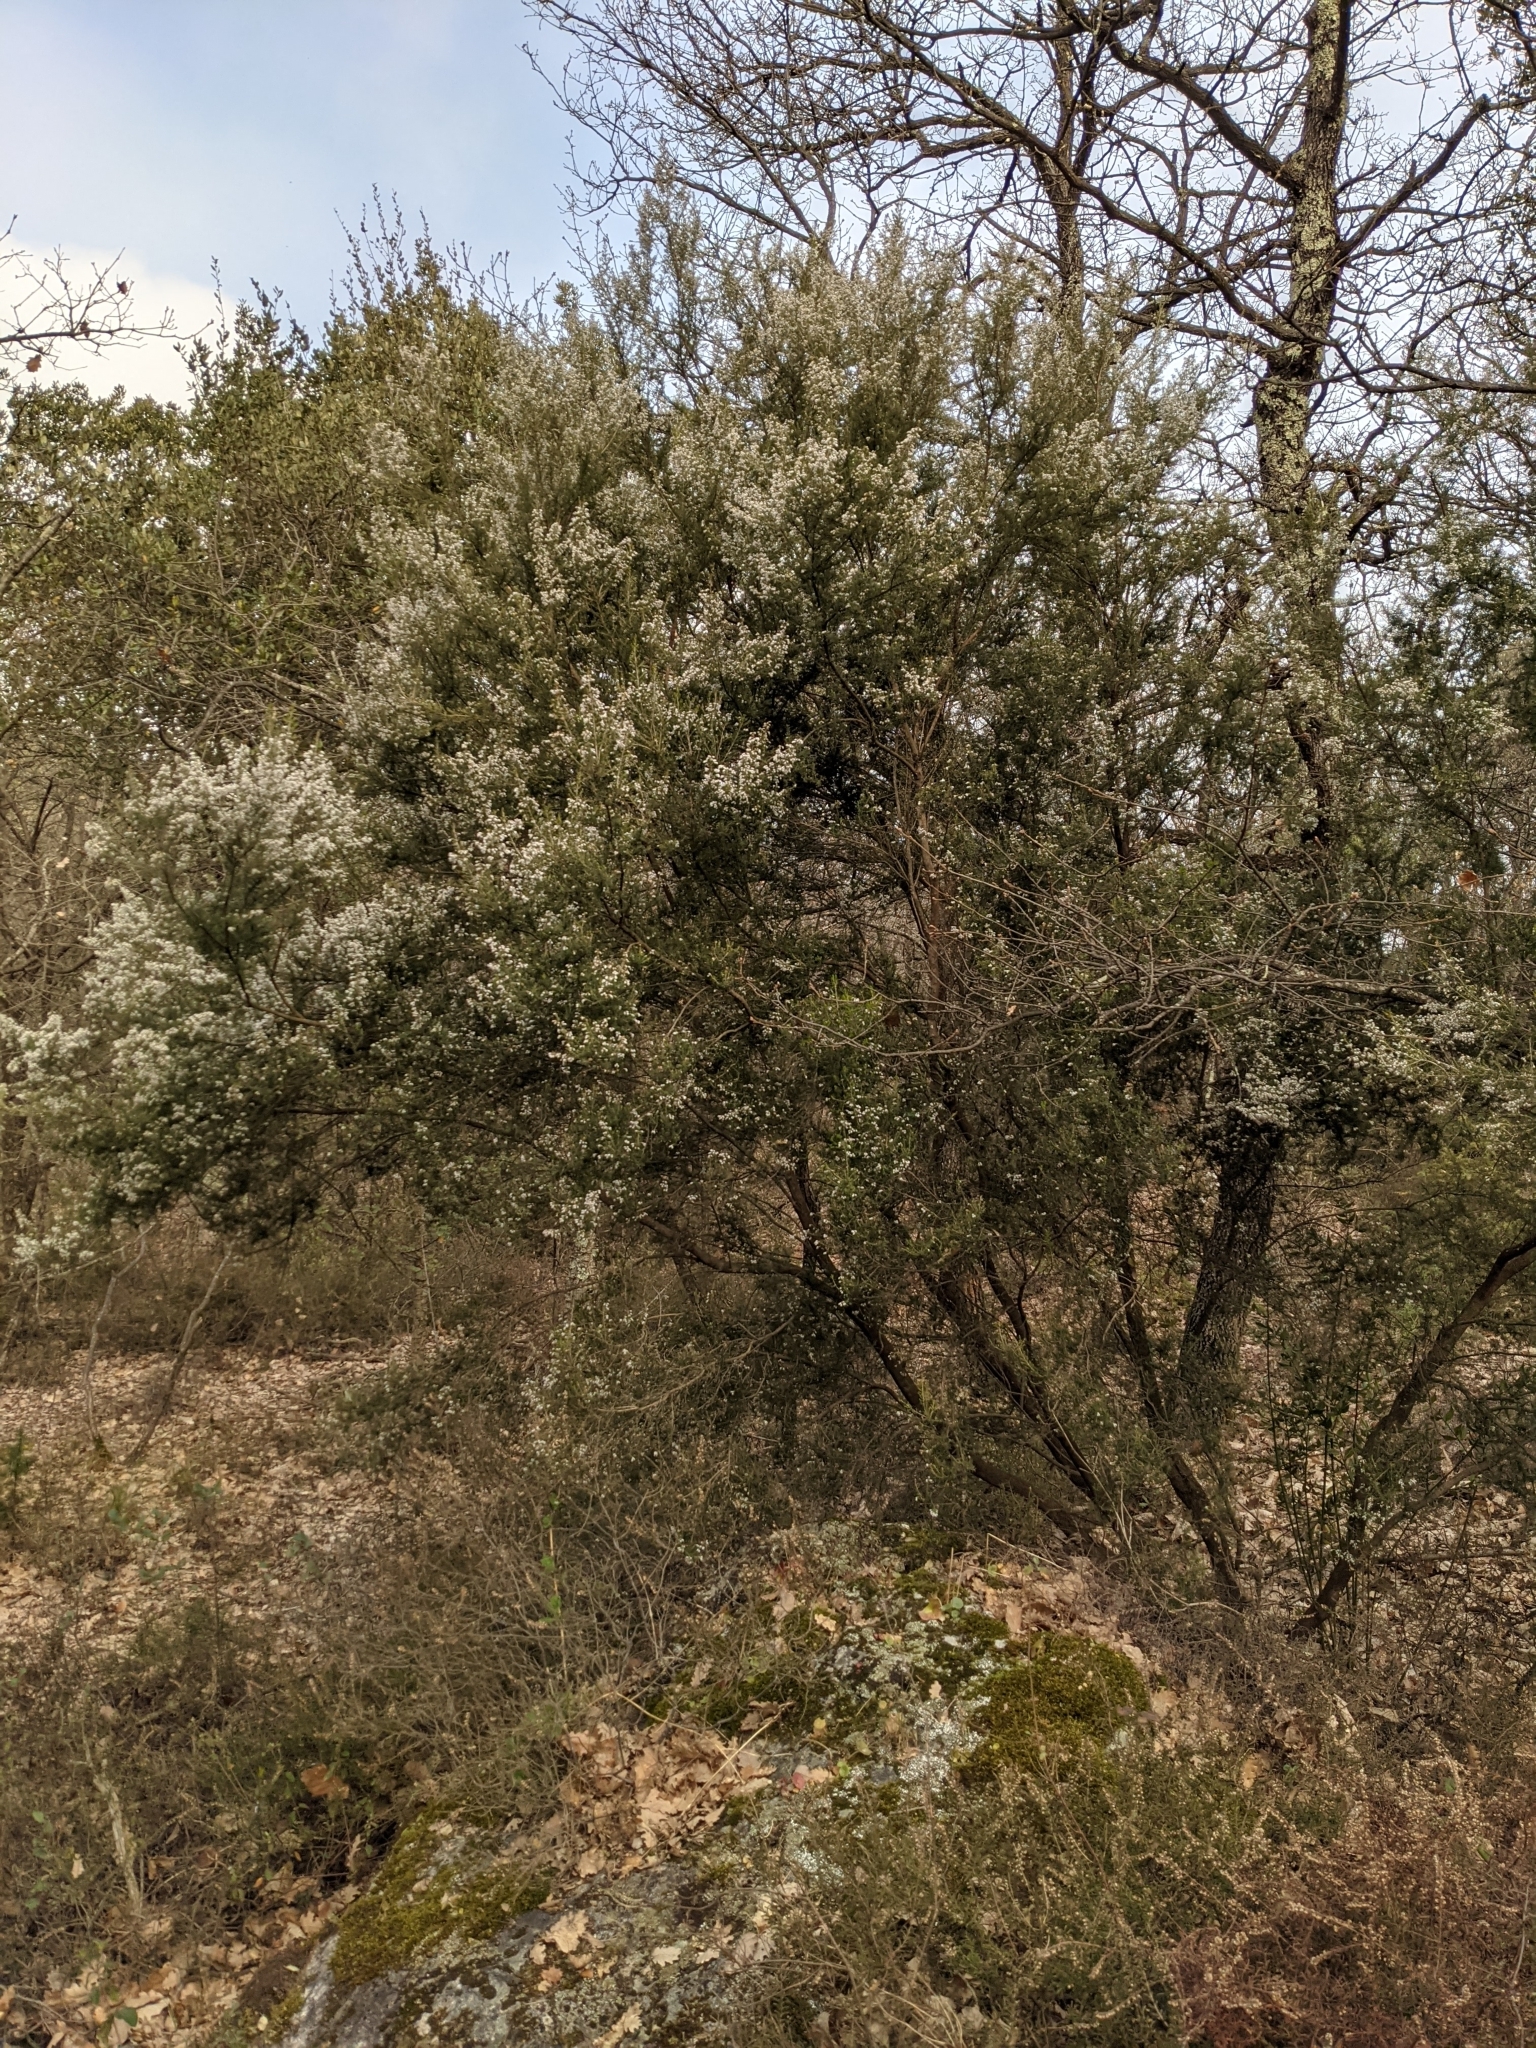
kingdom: Plantae
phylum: Tracheophyta
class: Magnoliopsida
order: Ericales
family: Ericaceae
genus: Erica
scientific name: Erica arborea
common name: Tree heath
